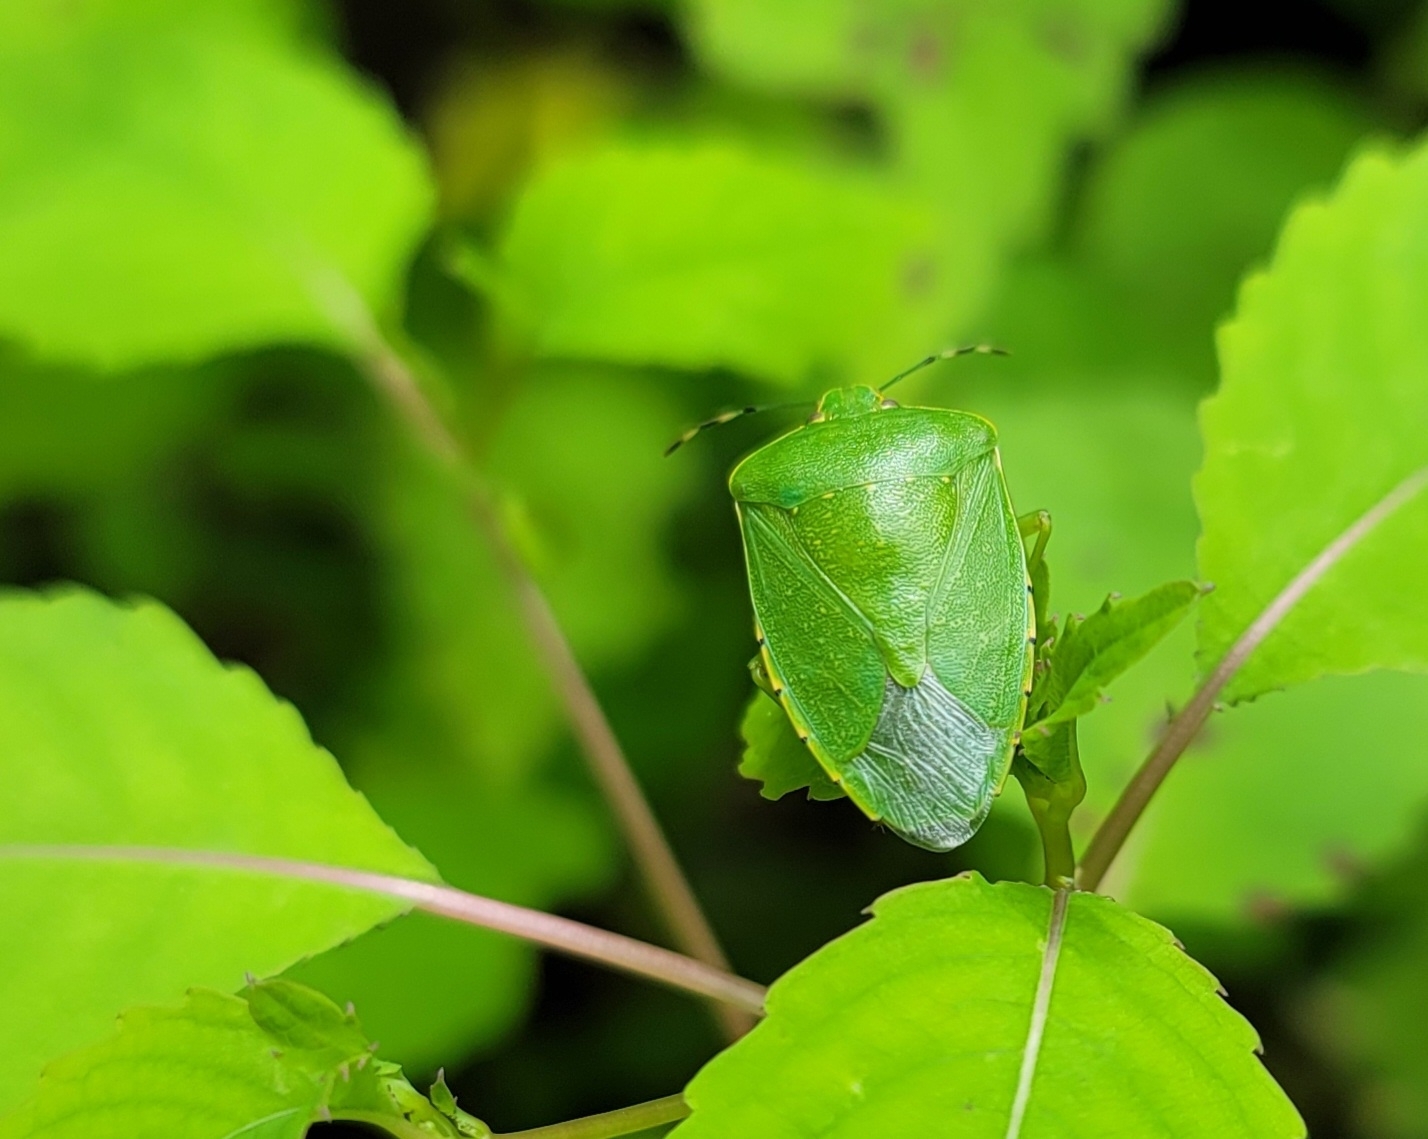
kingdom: Animalia
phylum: Arthropoda
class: Insecta
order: Hemiptera
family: Pentatomidae
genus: Chinavia
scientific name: Chinavia hilaris
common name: Green stink bug
